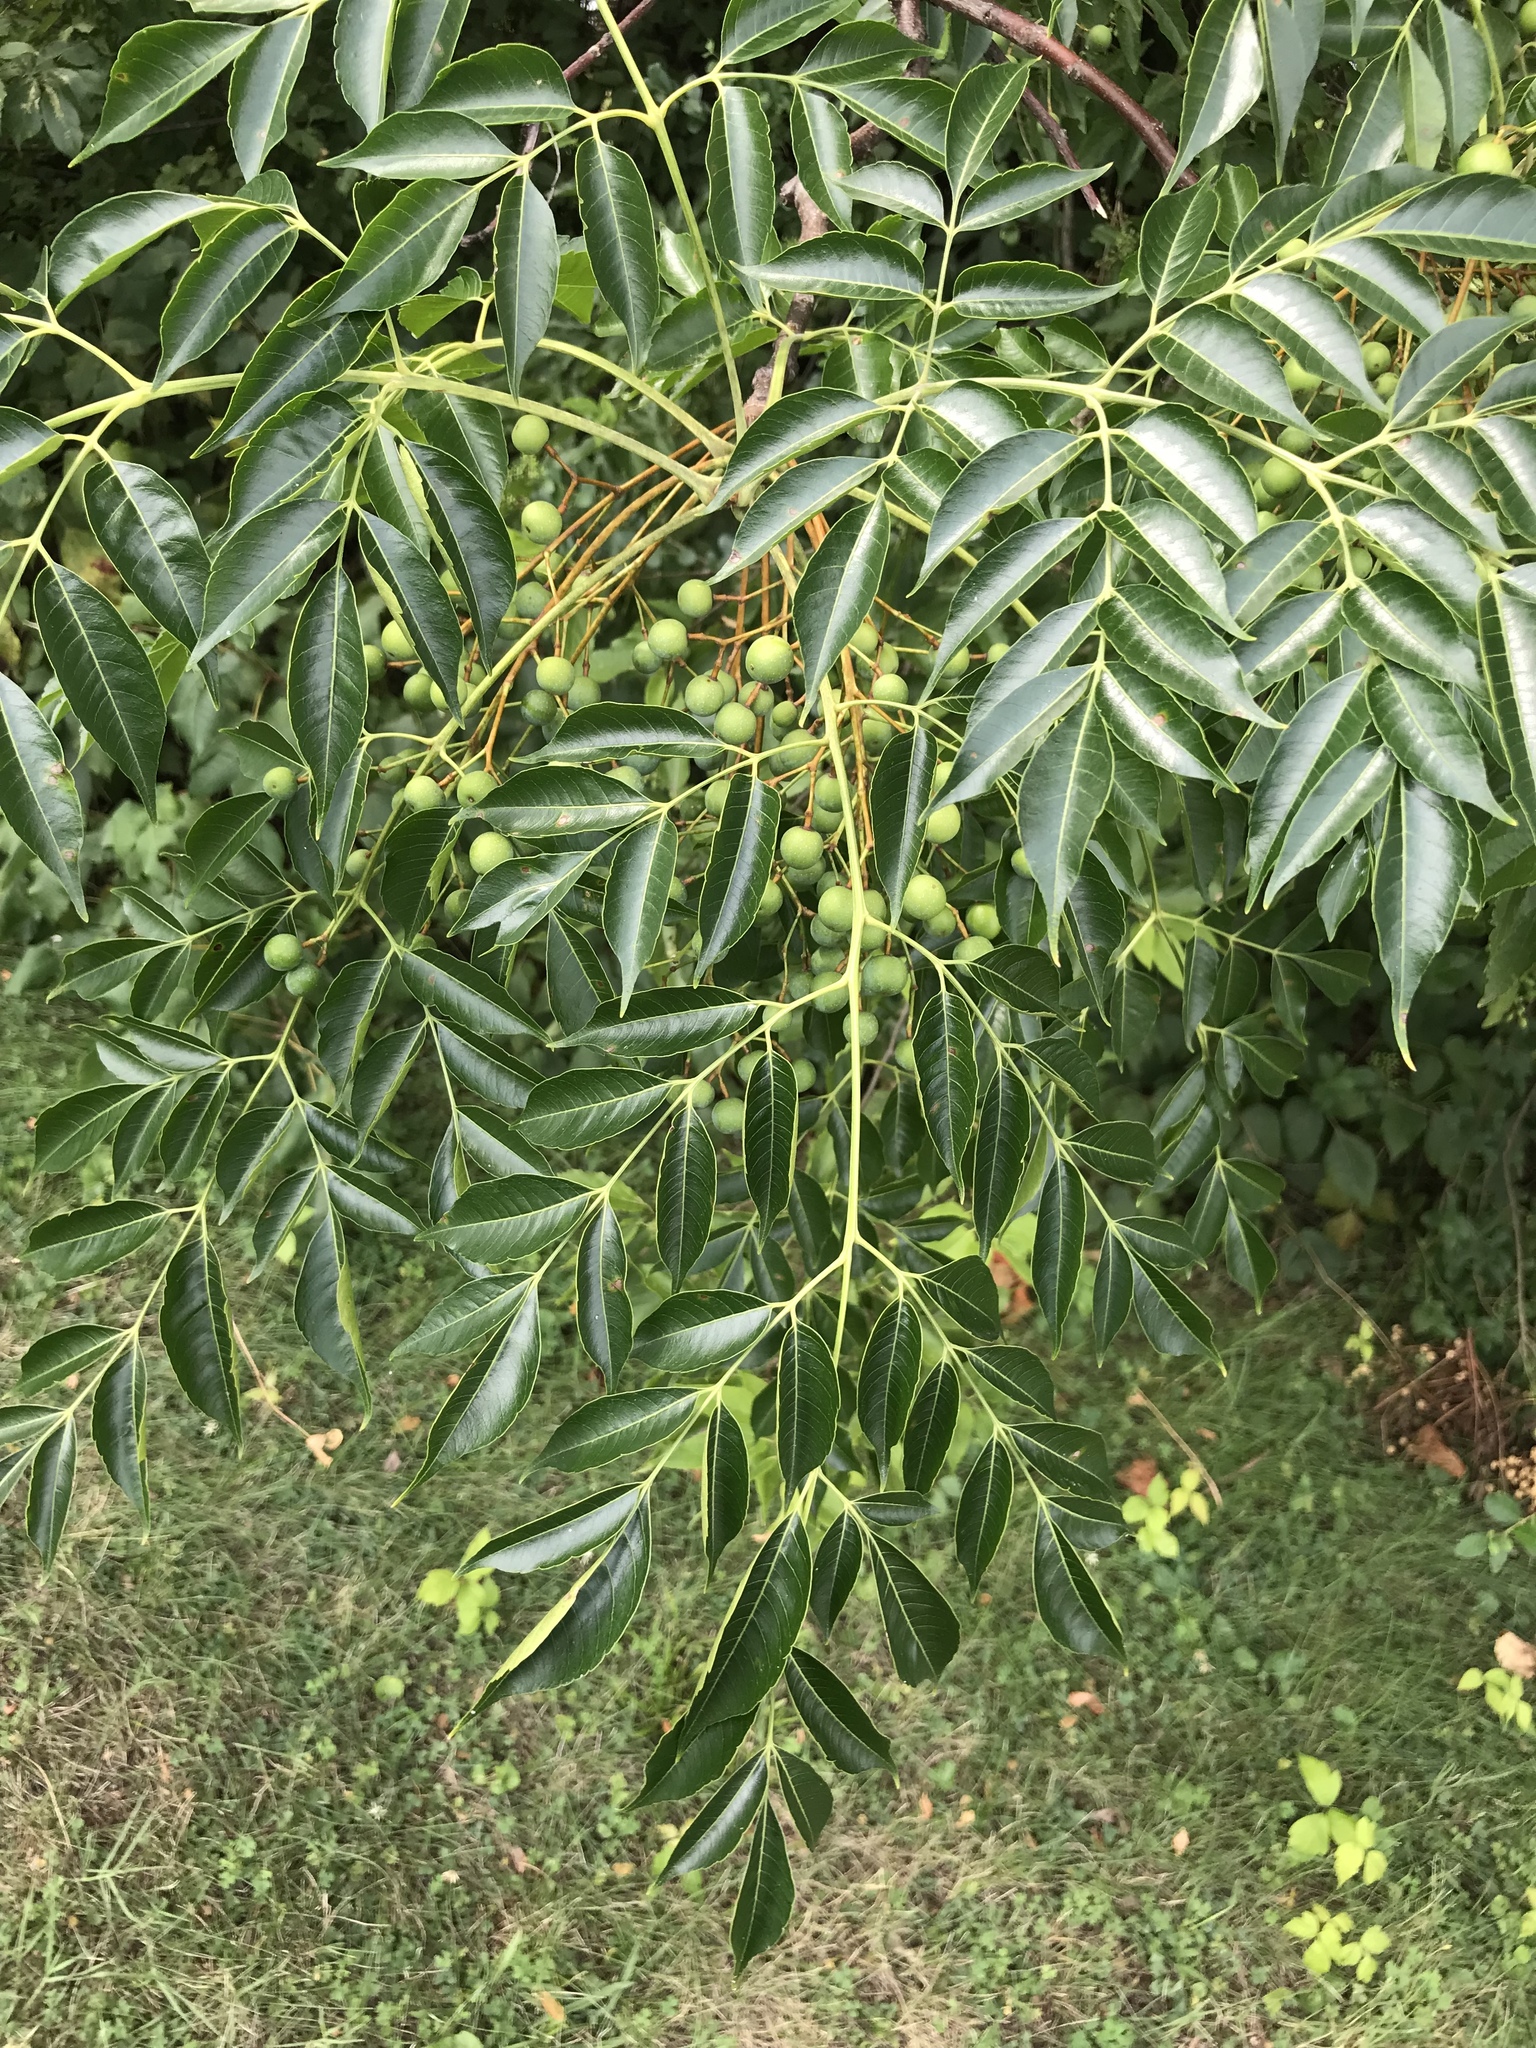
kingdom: Plantae
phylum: Tracheophyta
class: Magnoliopsida
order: Sapindales
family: Meliaceae
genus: Melia
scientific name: Melia azedarach
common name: Chinaberrytree
